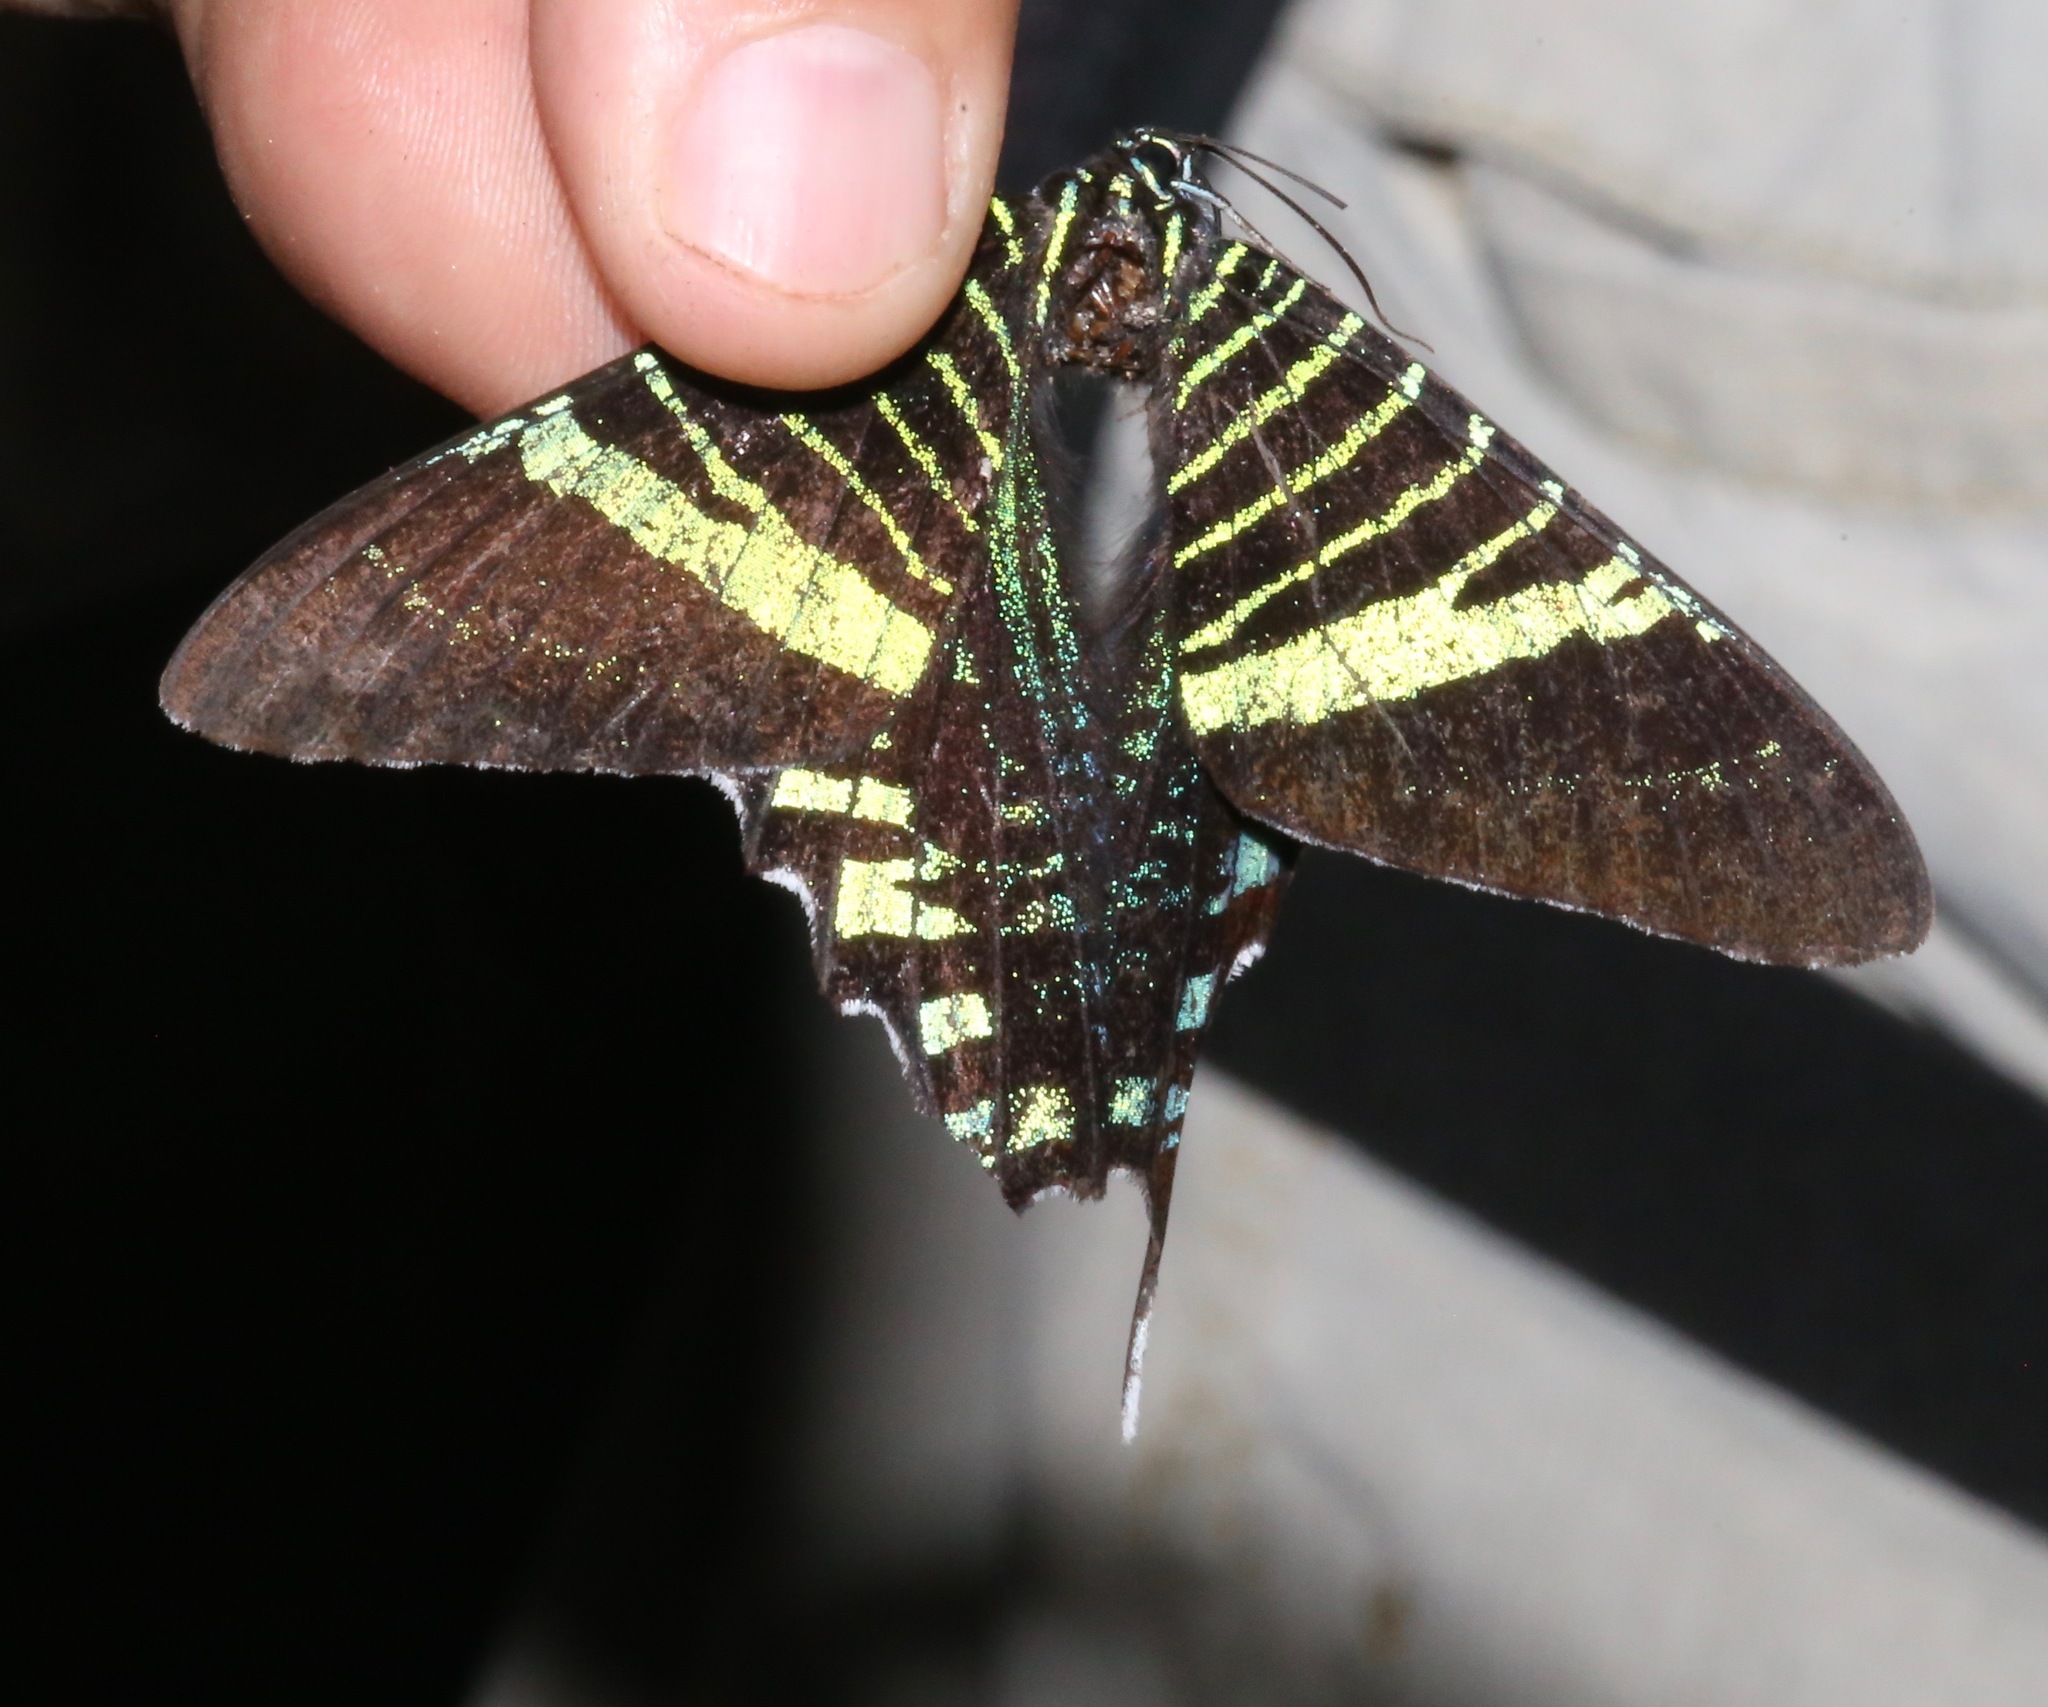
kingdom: Animalia
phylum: Arthropoda
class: Insecta
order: Lepidoptera
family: Uraniidae
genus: Urania
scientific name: Urania fulgens
